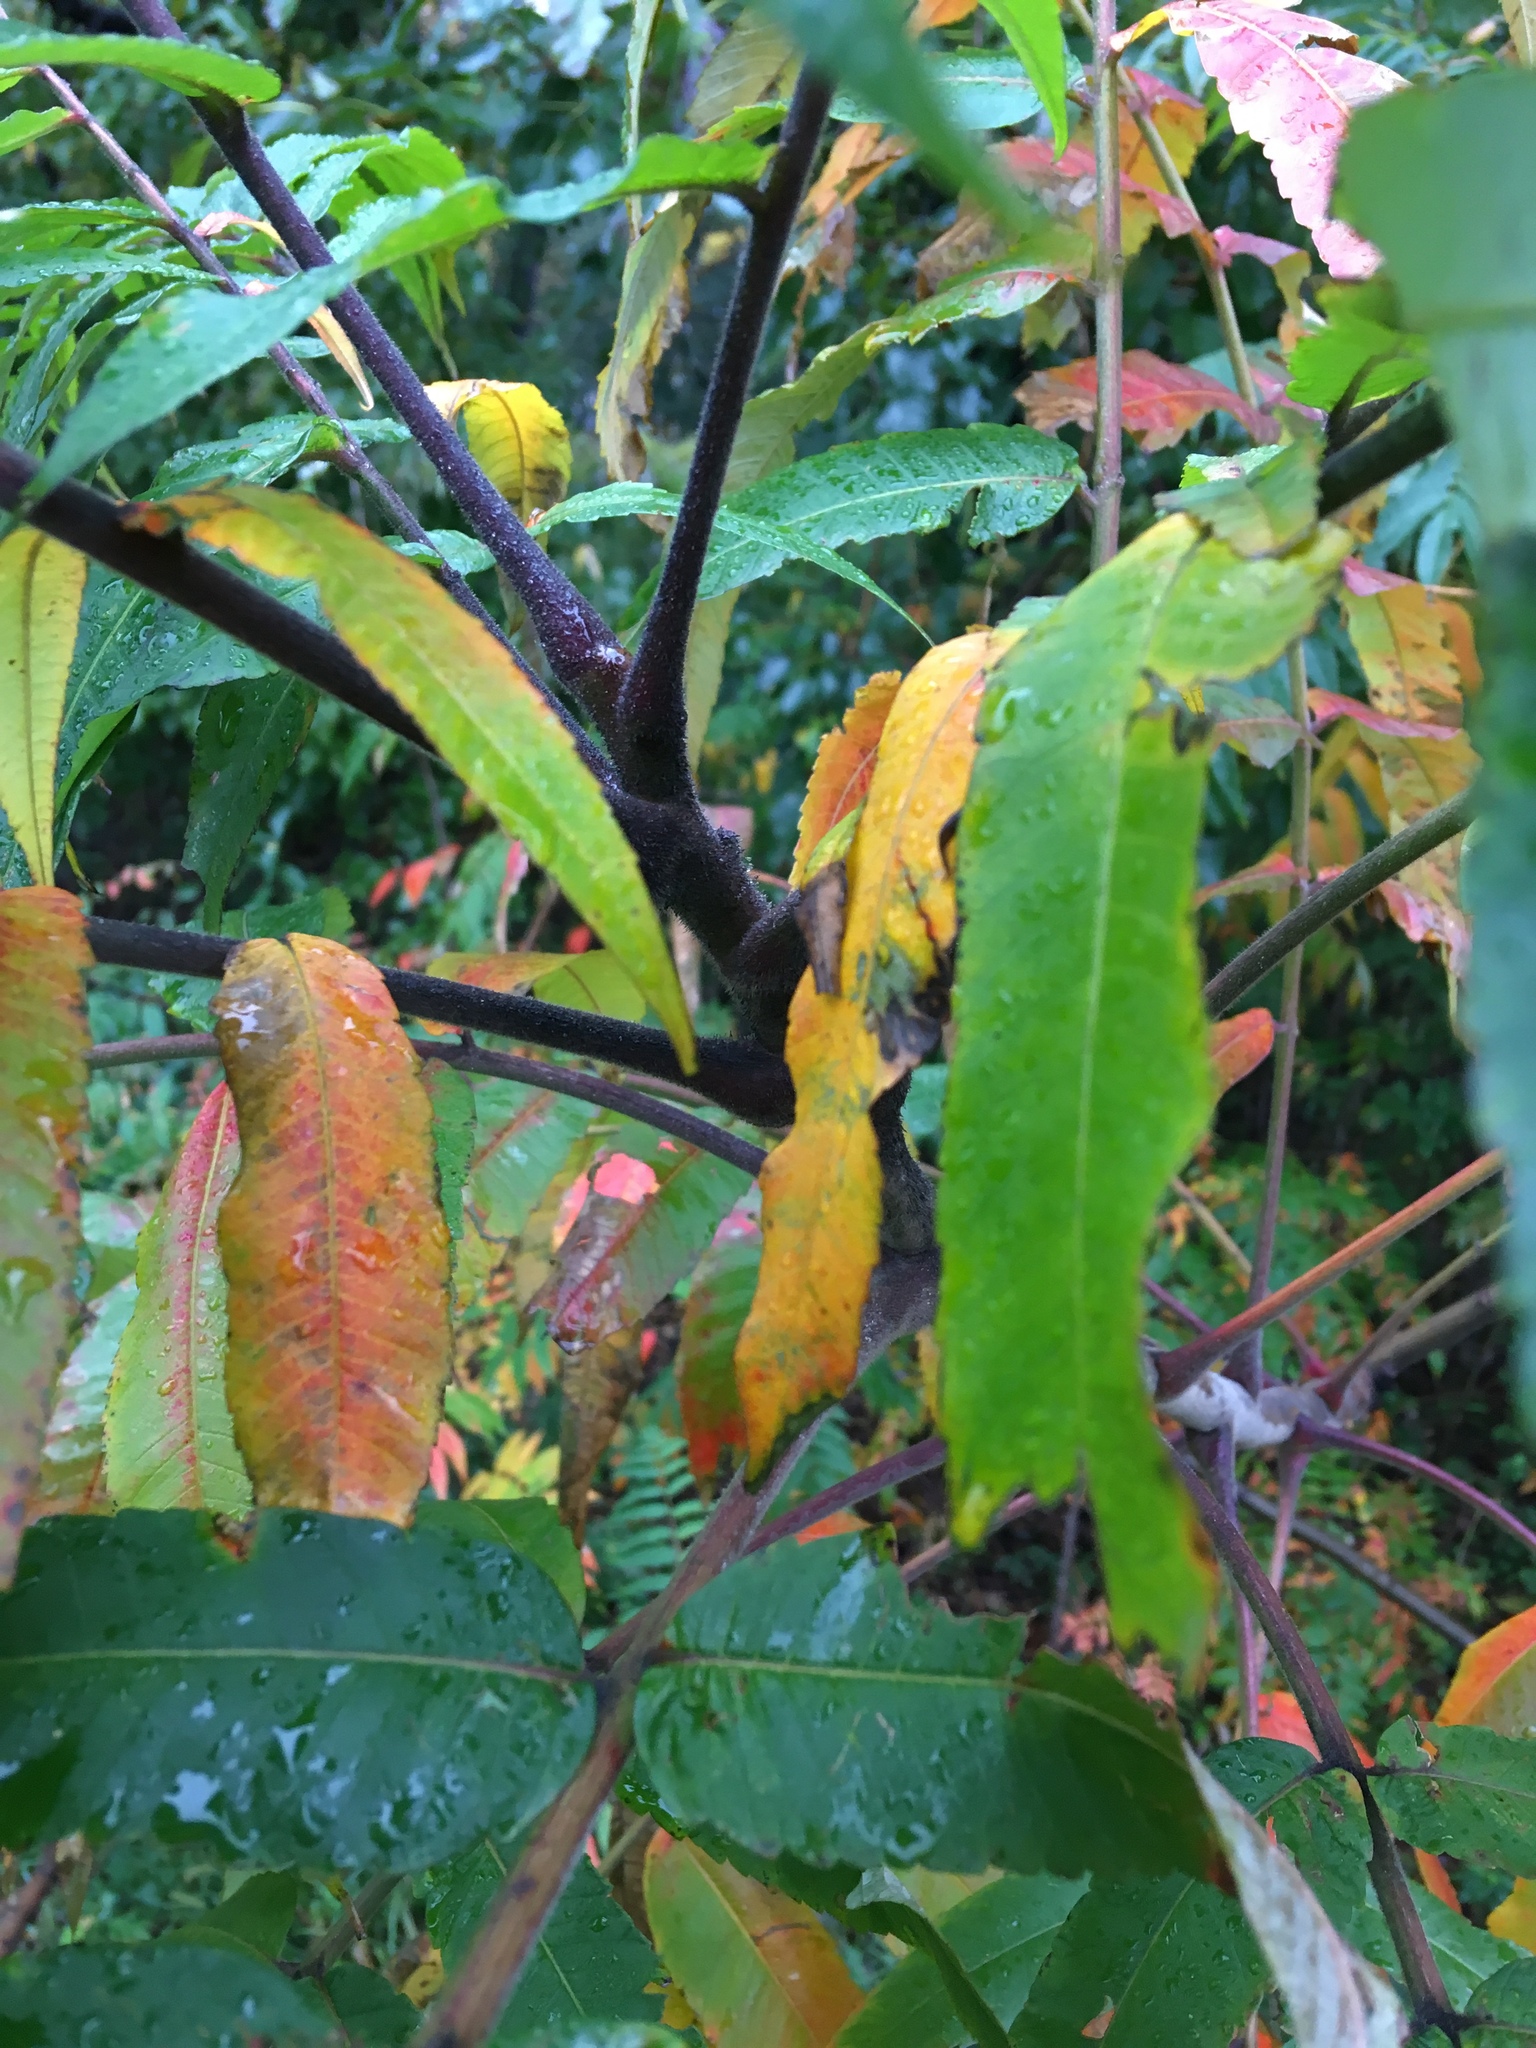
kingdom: Plantae
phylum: Tracheophyta
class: Magnoliopsida
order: Sapindales
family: Anacardiaceae
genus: Rhus
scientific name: Rhus typhina
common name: Staghorn sumac
